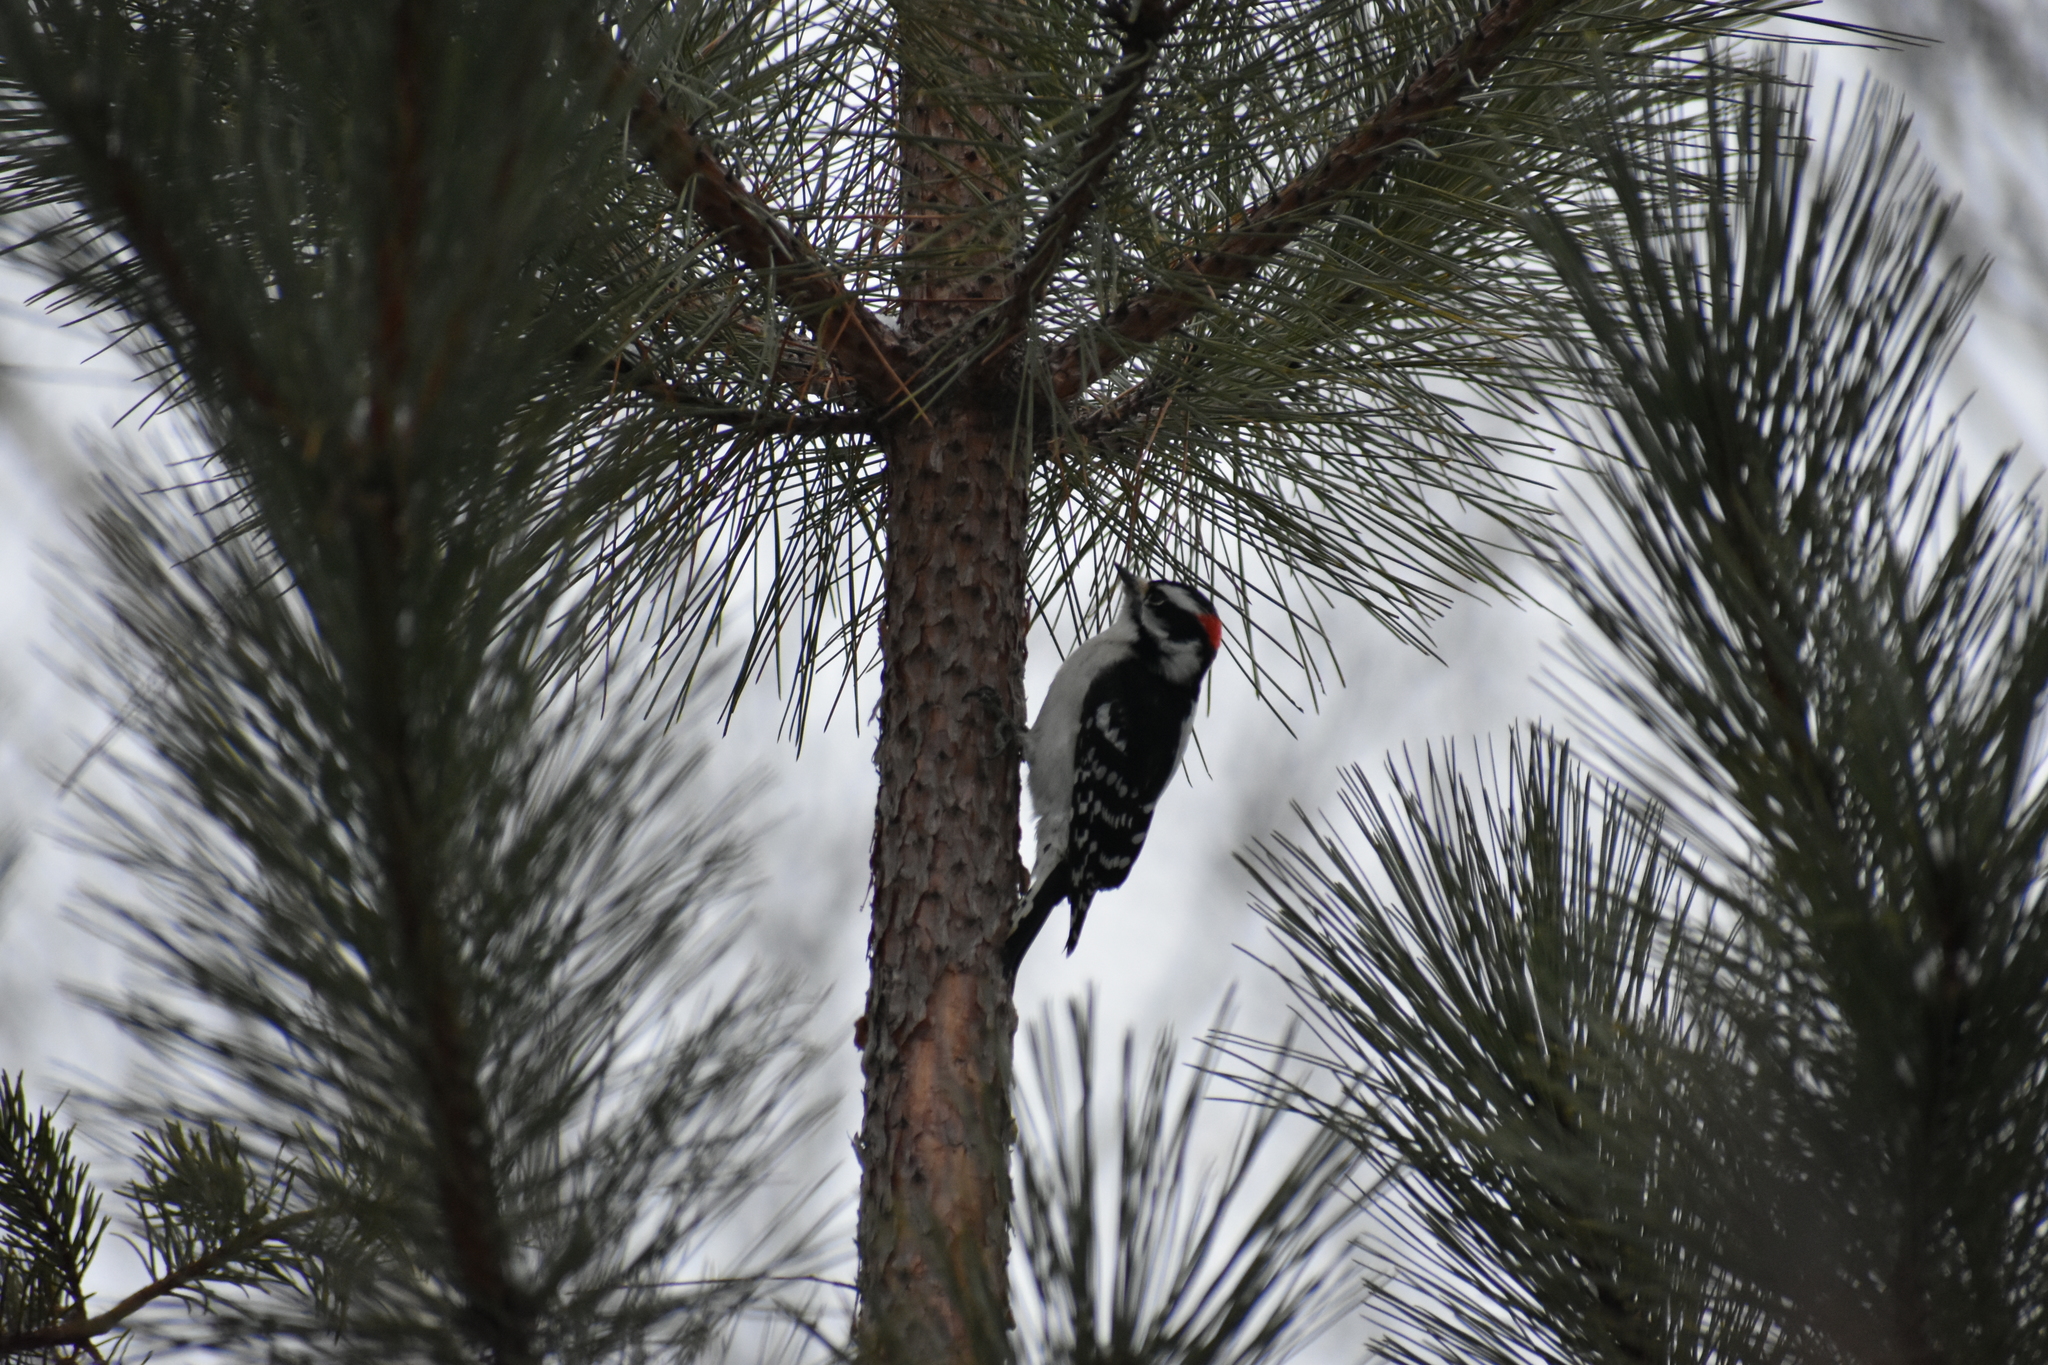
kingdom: Animalia
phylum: Chordata
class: Aves
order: Piciformes
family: Picidae
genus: Dryobates
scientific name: Dryobates pubescens
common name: Downy woodpecker
